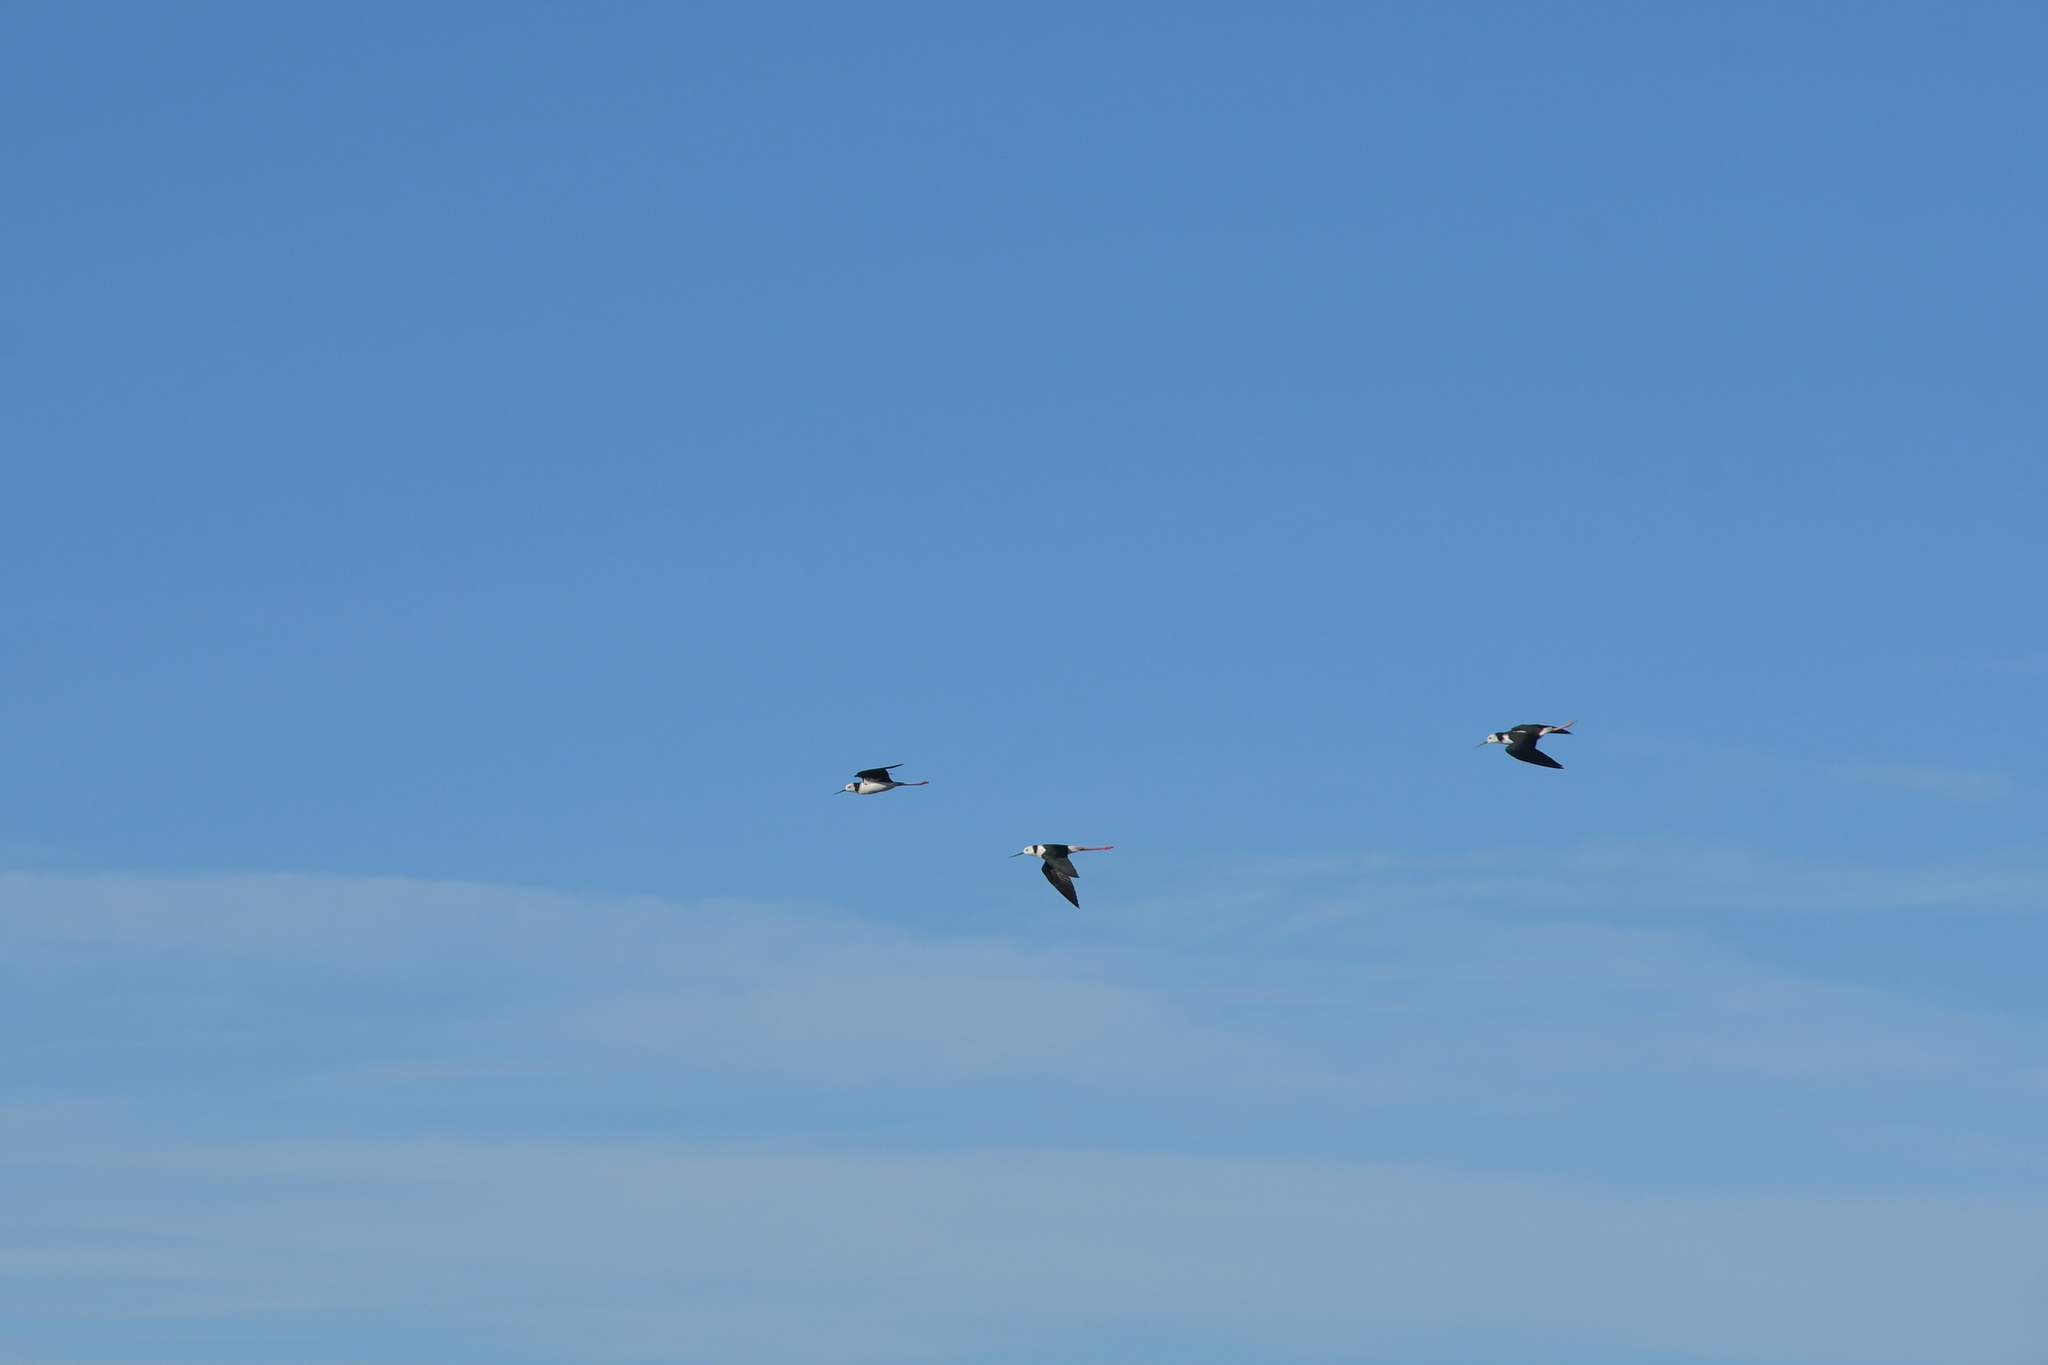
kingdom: Animalia
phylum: Chordata
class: Aves
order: Charadriiformes
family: Recurvirostridae
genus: Himantopus
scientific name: Himantopus leucocephalus
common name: White-headed stilt
